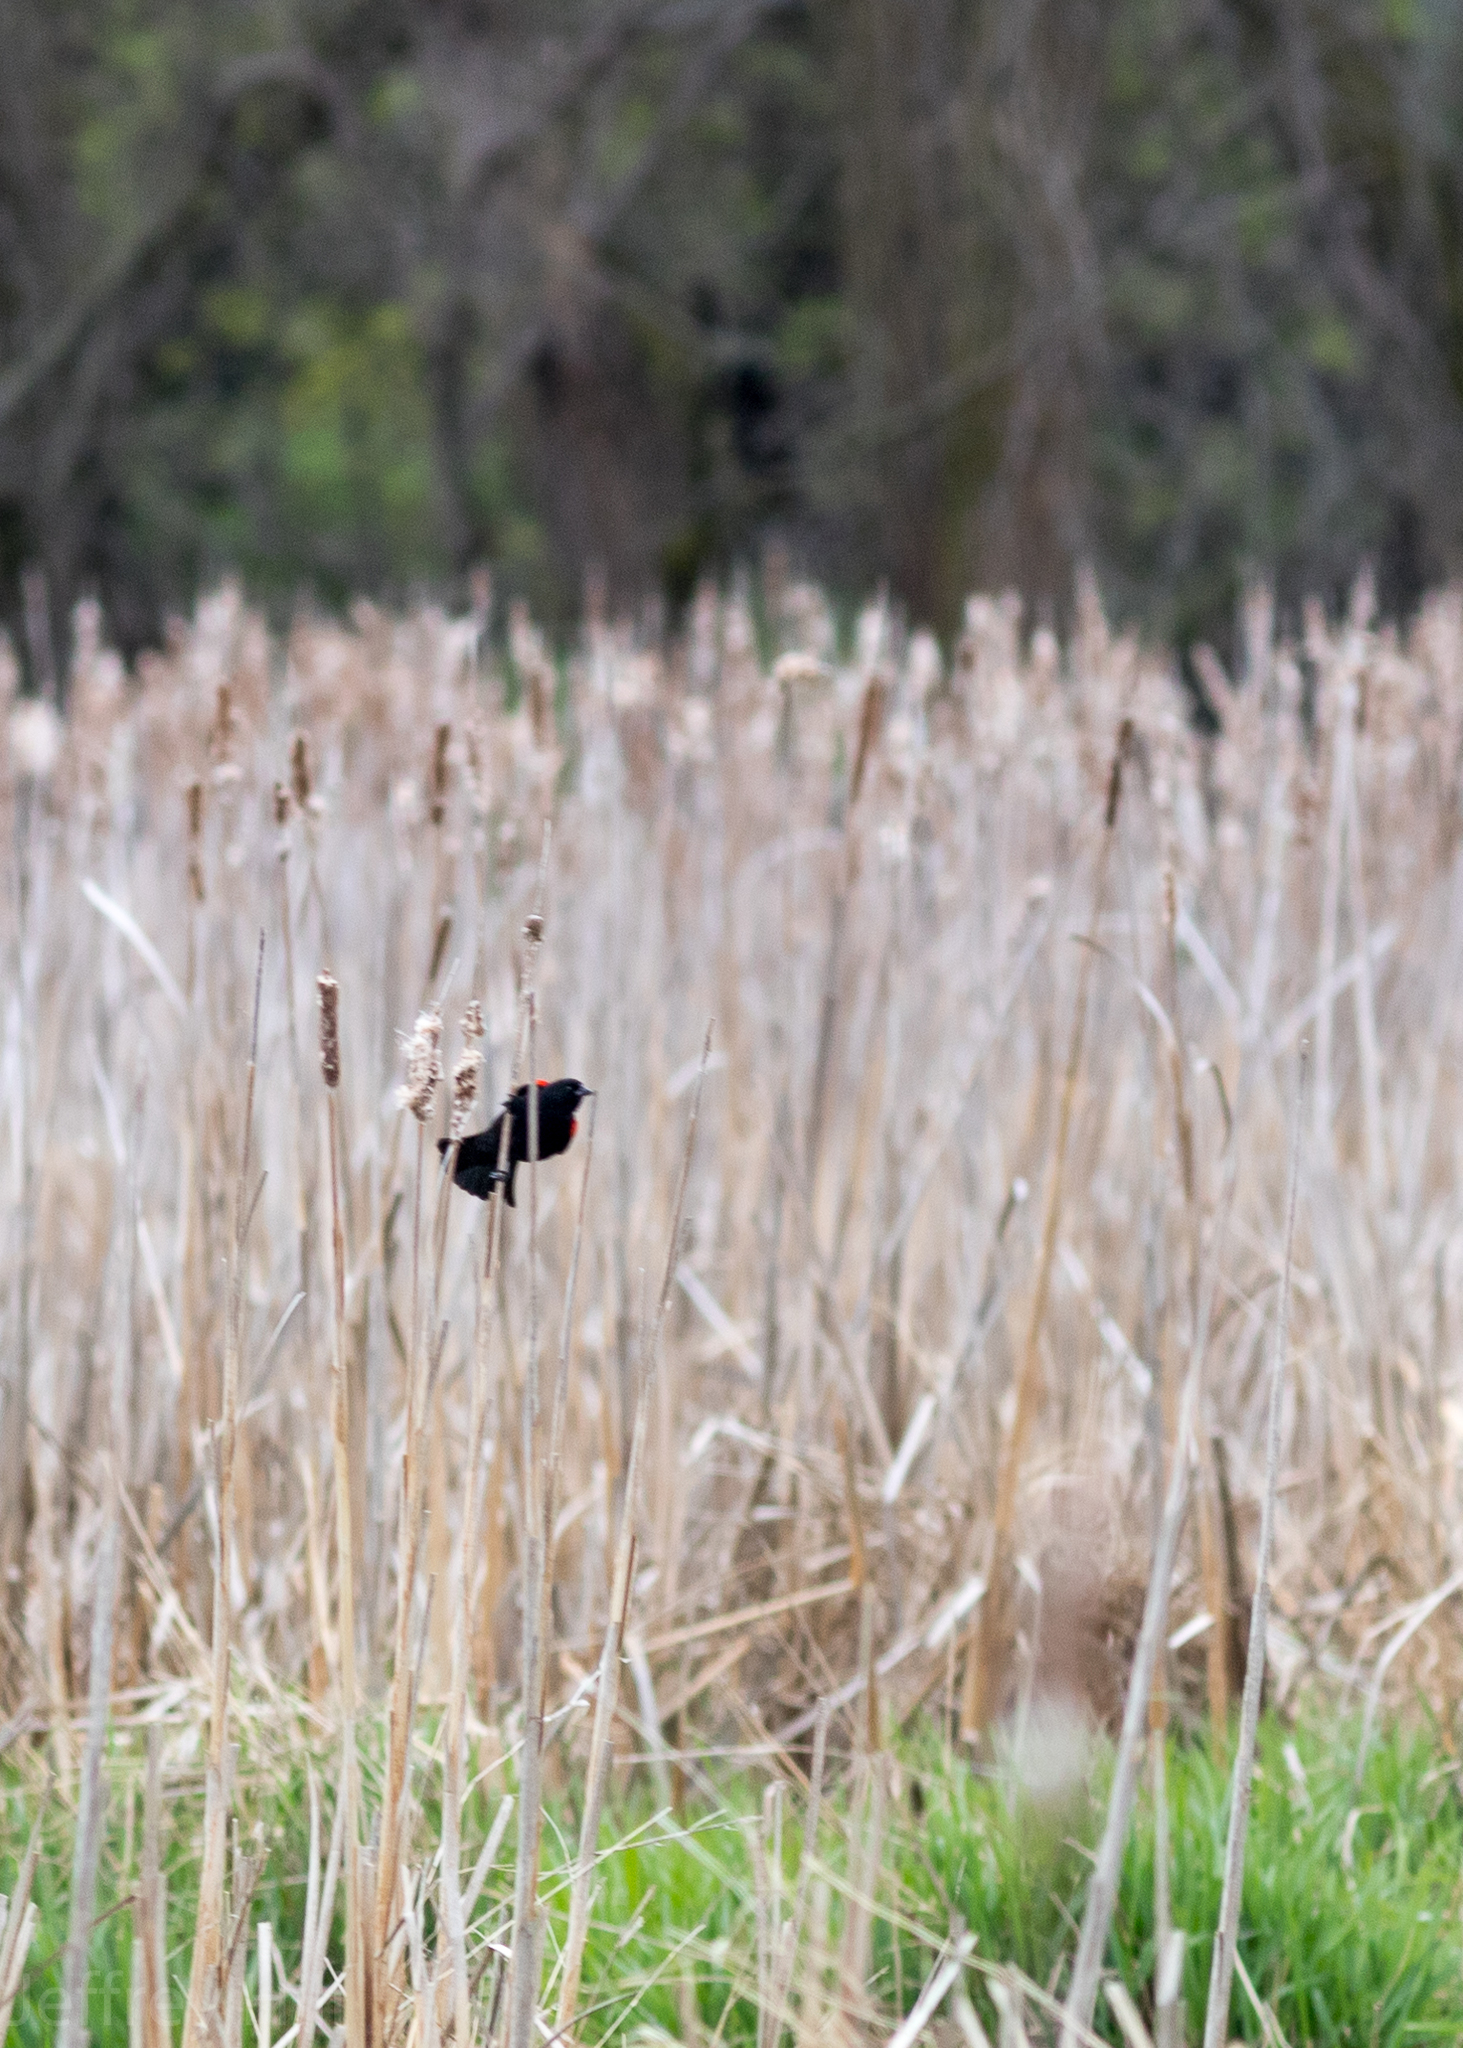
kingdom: Animalia
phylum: Chordata
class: Aves
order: Passeriformes
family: Icteridae
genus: Agelaius
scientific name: Agelaius phoeniceus
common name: Red-winged blackbird
